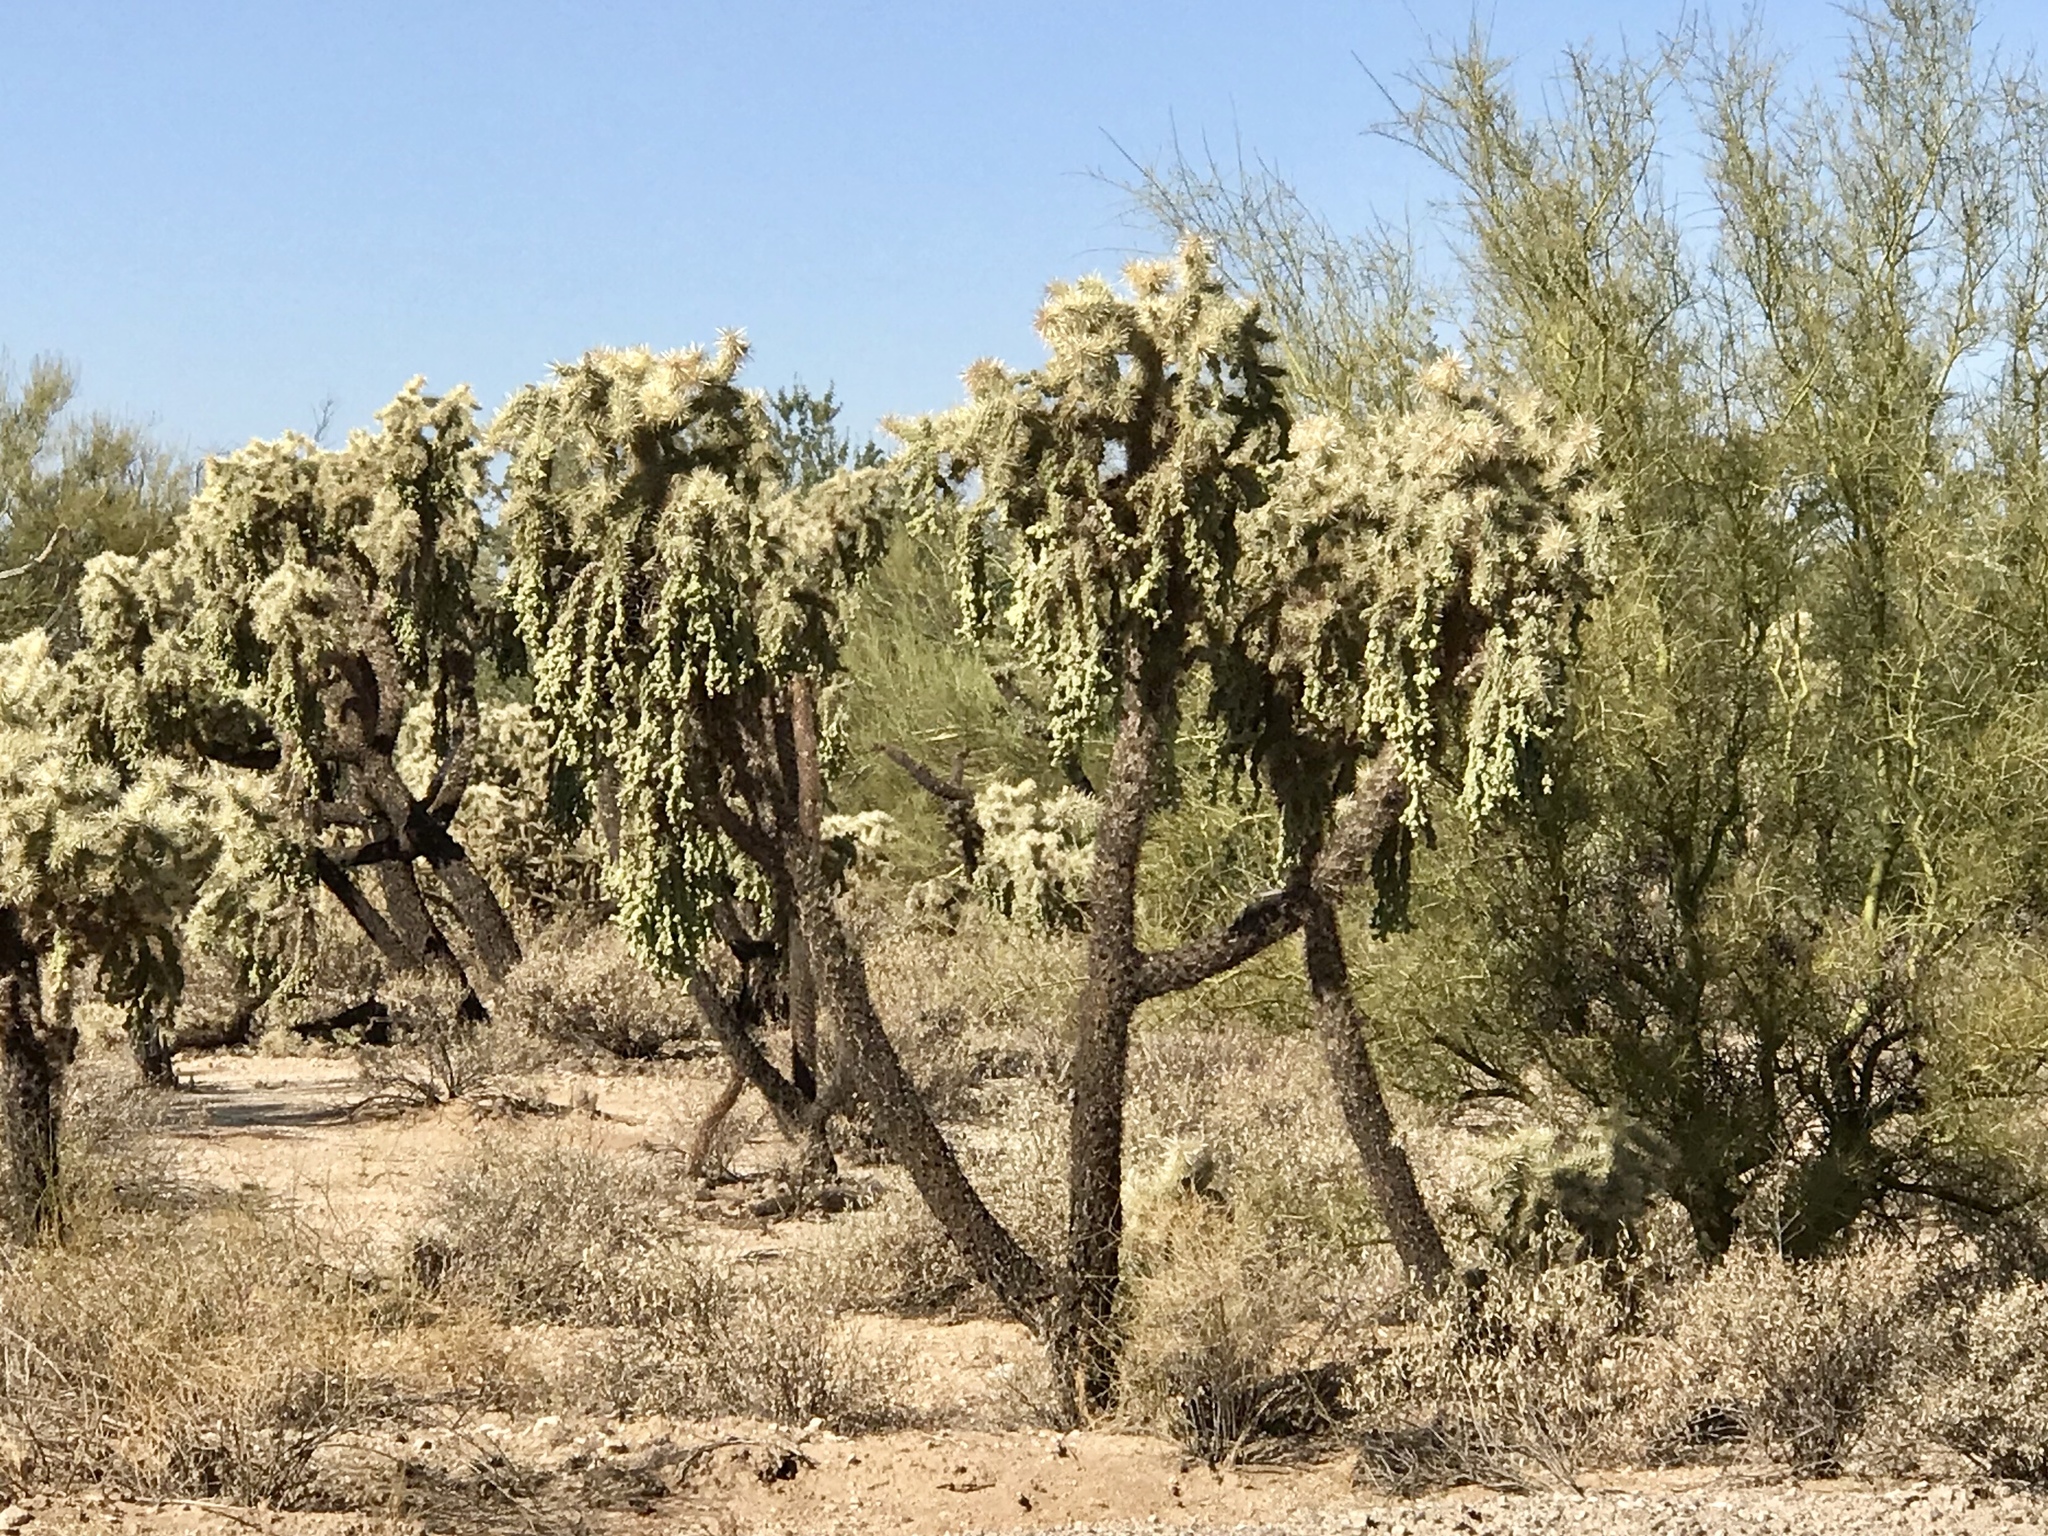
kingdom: Plantae
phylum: Tracheophyta
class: Magnoliopsida
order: Caryophyllales
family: Cactaceae
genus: Cylindropuntia
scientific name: Cylindropuntia fulgida
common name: Jumping cholla
